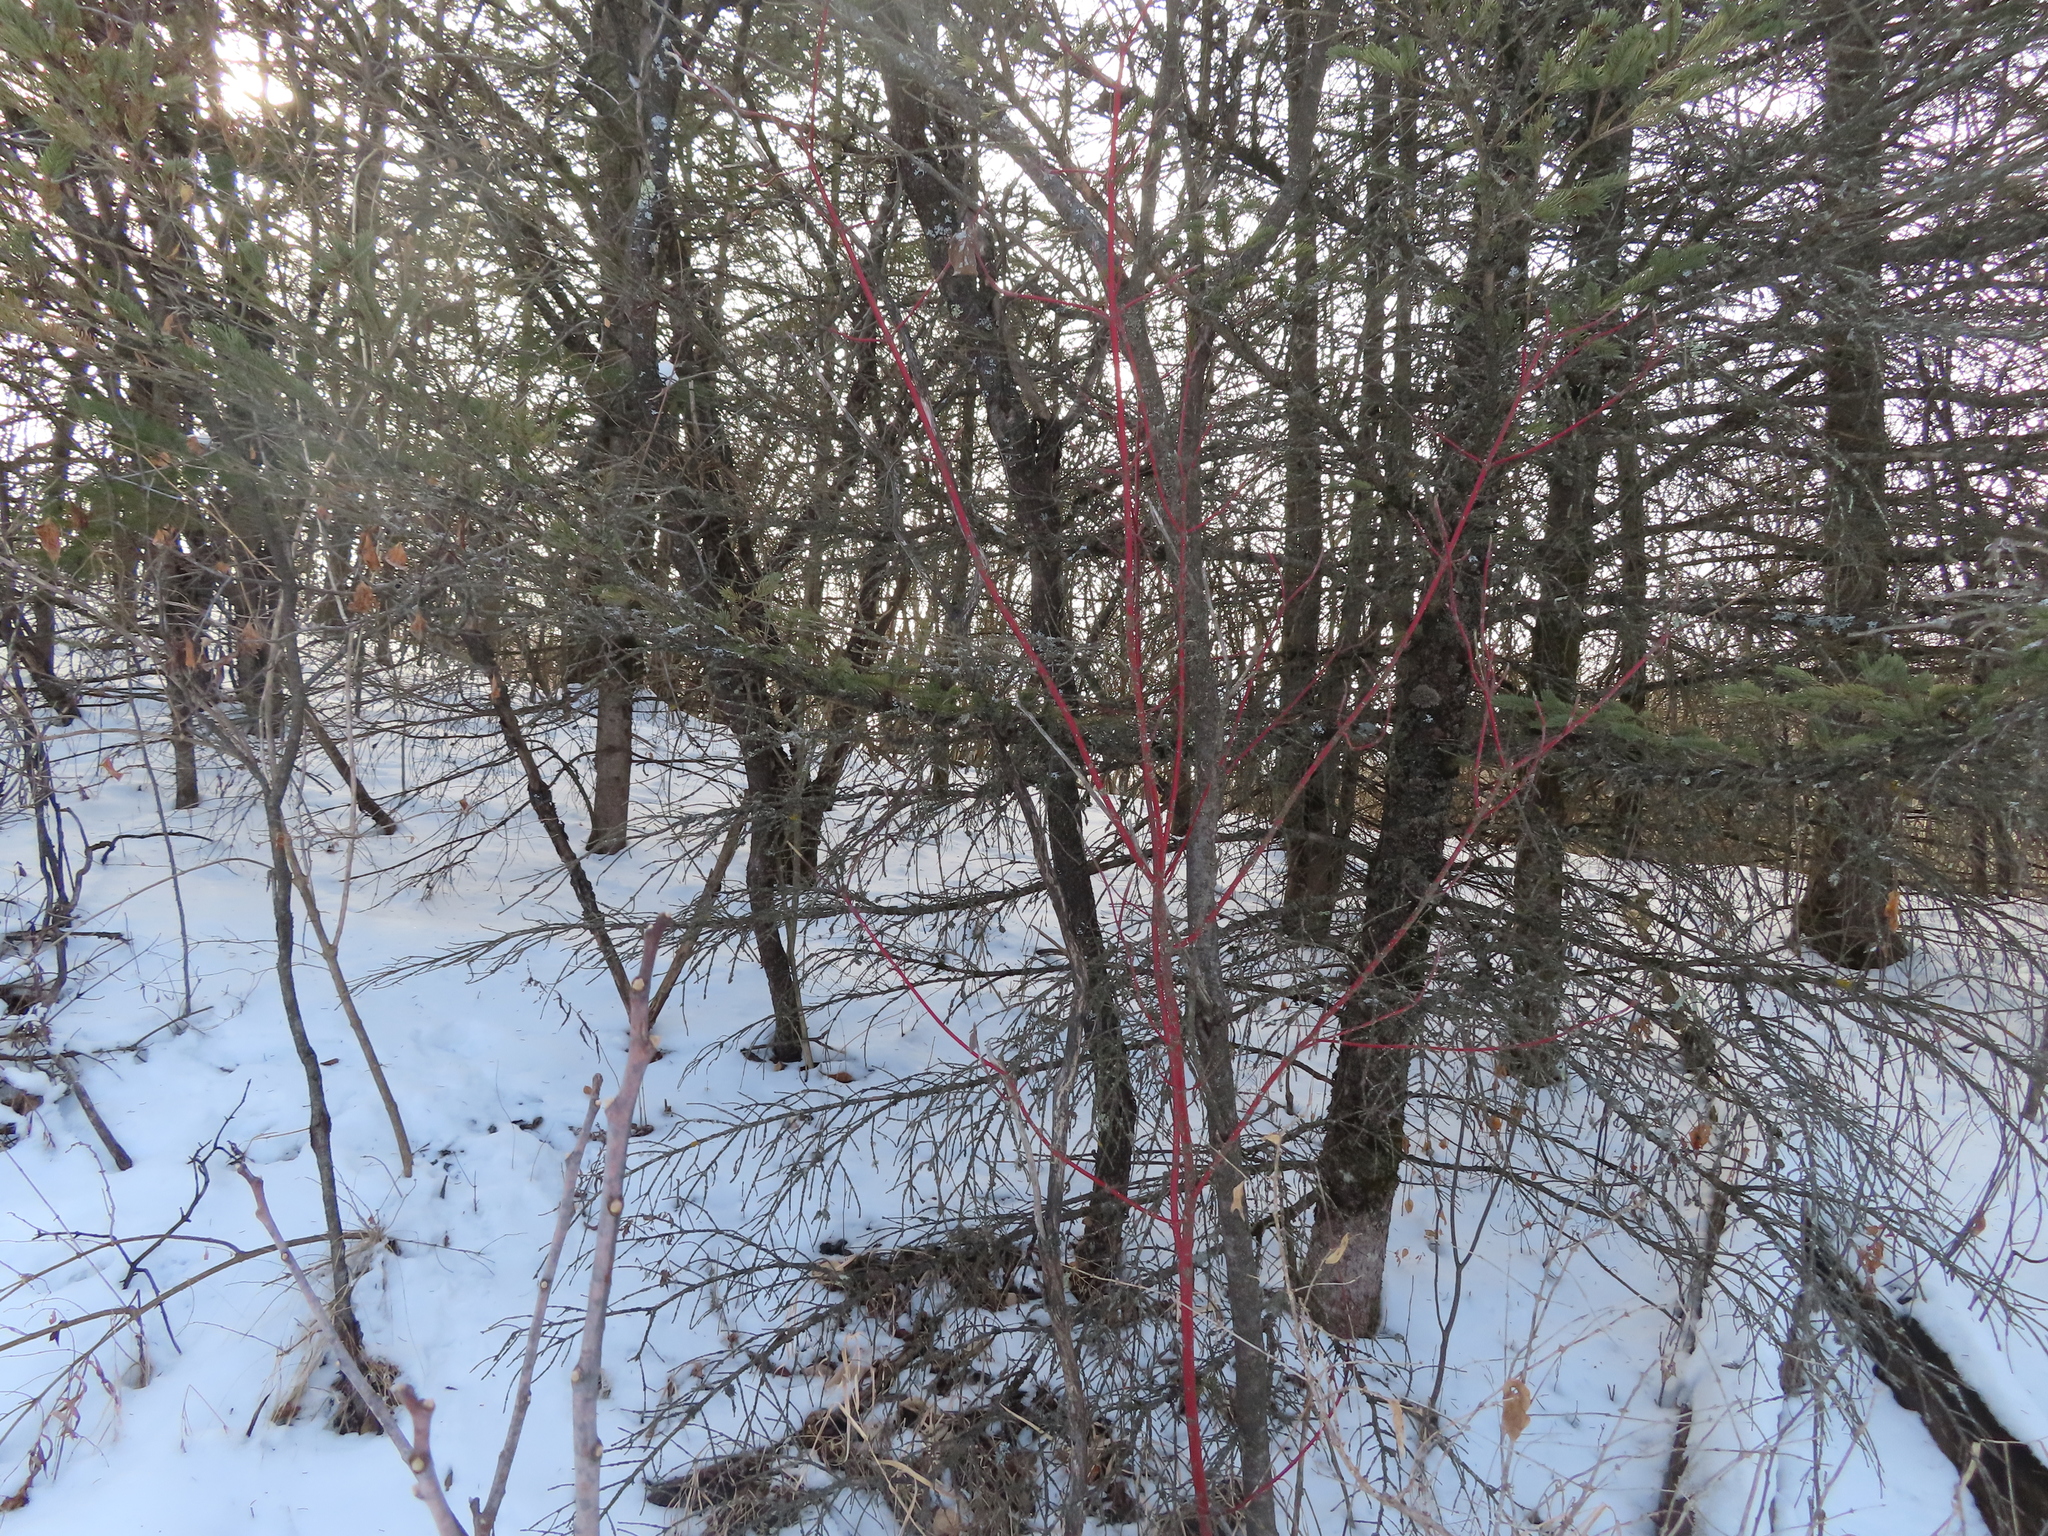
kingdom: Plantae
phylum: Tracheophyta
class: Magnoliopsida
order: Cornales
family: Cornaceae
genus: Cornus
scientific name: Cornus sericea
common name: Red-osier dogwood
